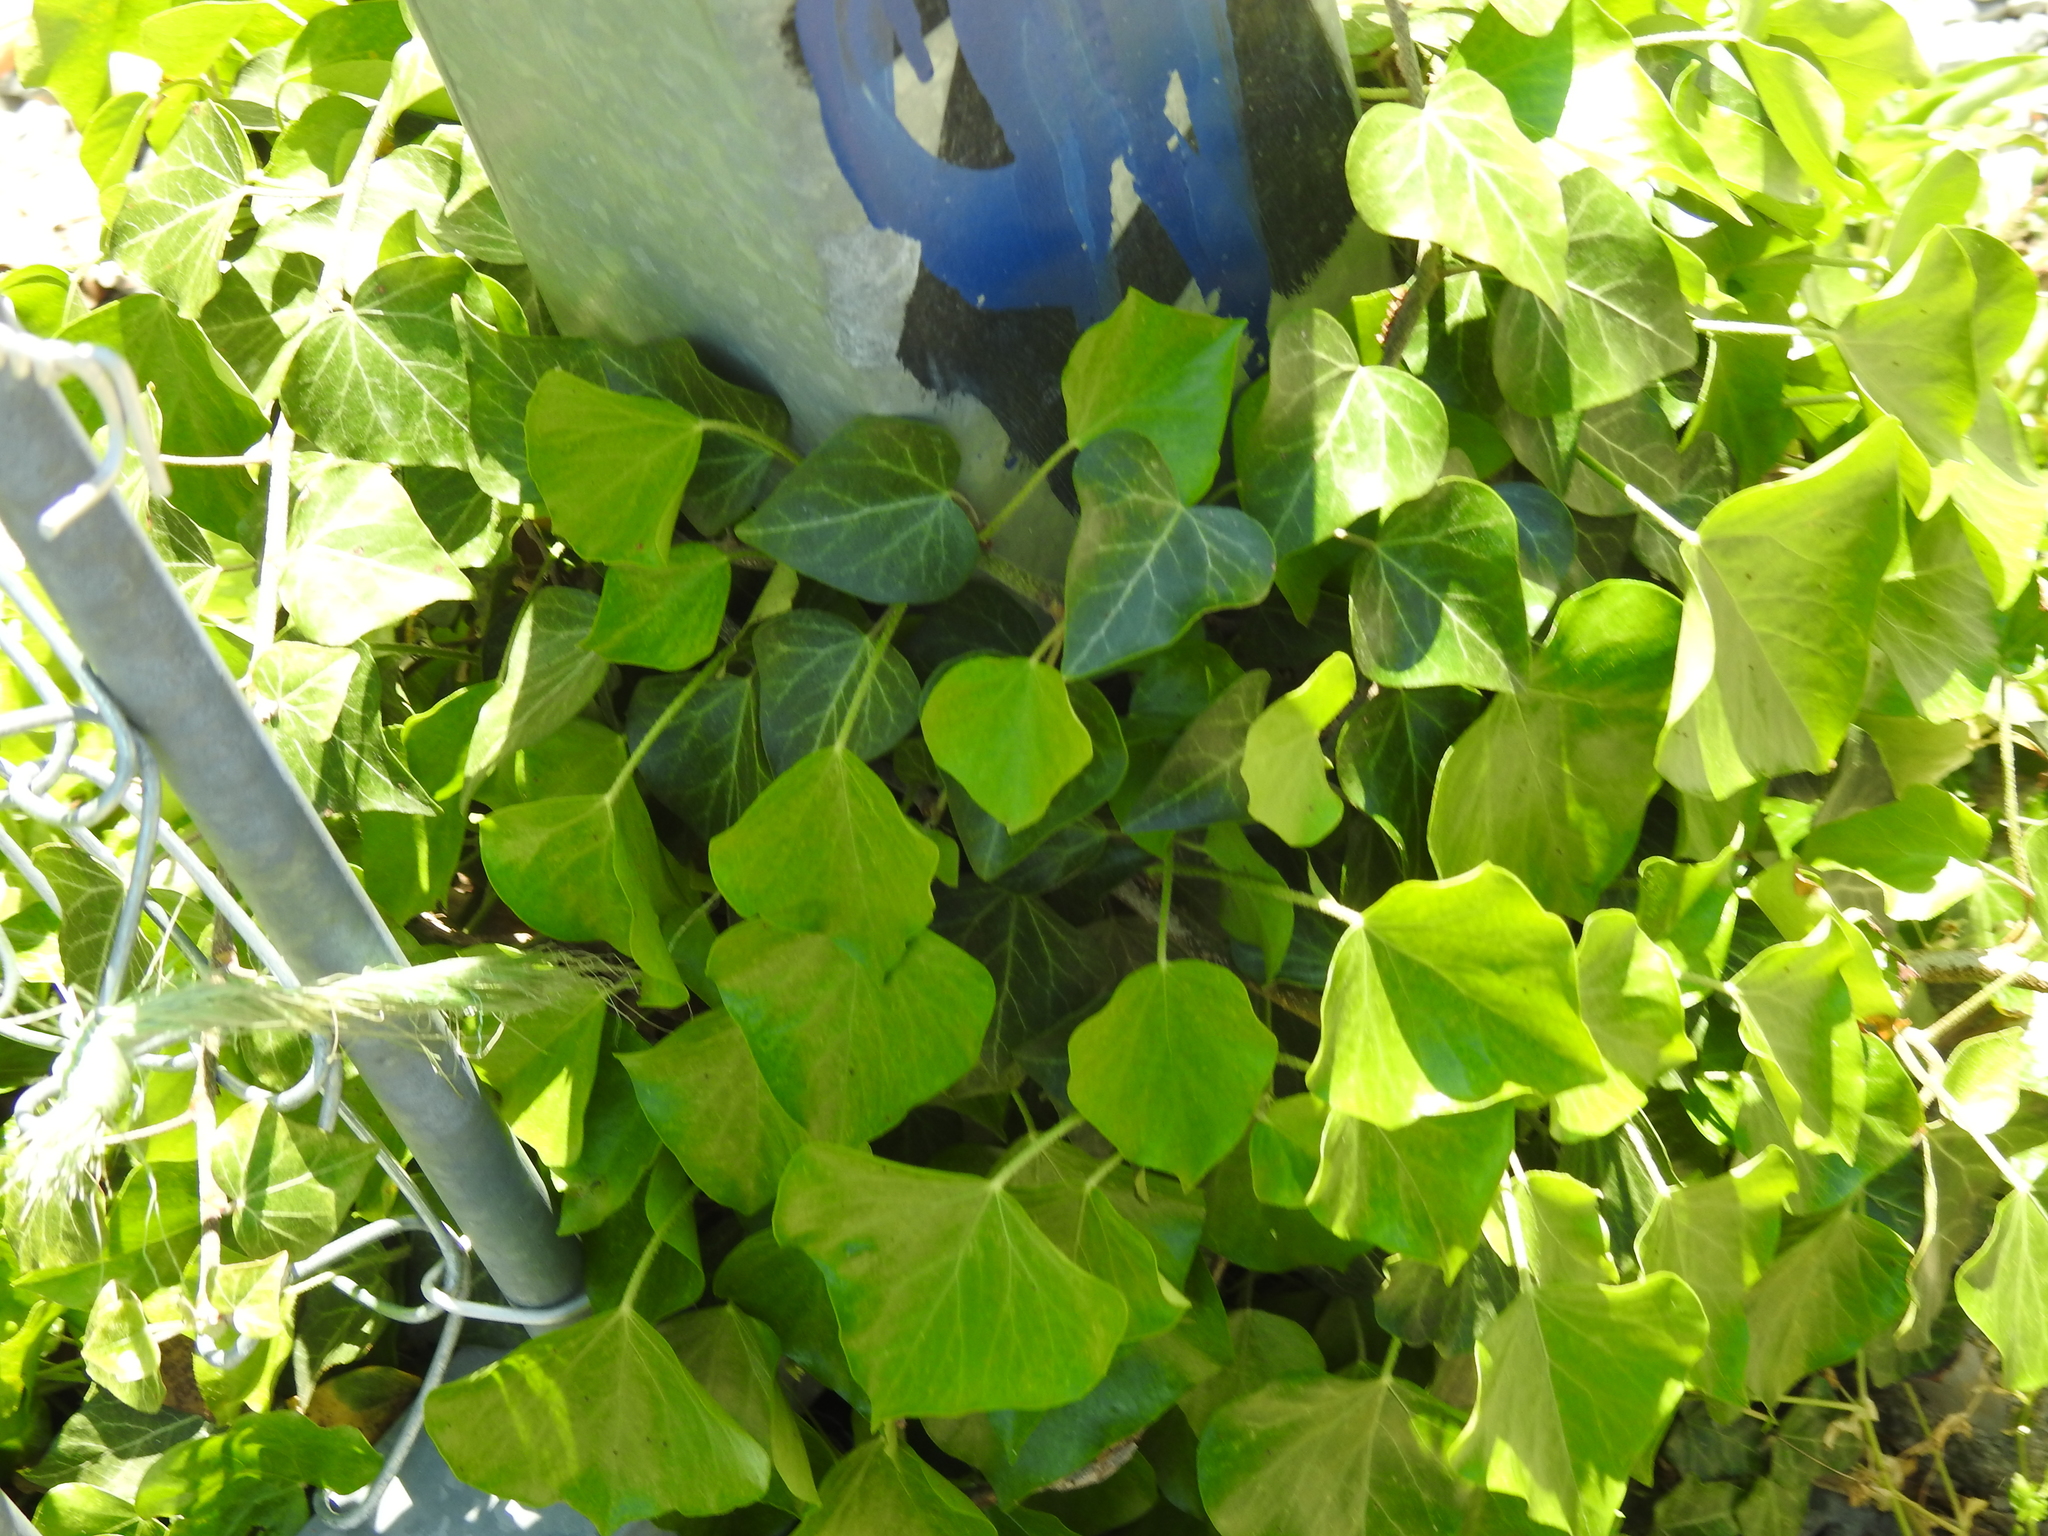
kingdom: Plantae
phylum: Tracheophyta
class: Magnoliopsida
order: Apiales
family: Araliaceae
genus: Hedera
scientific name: Hedera helix
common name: Ivy
